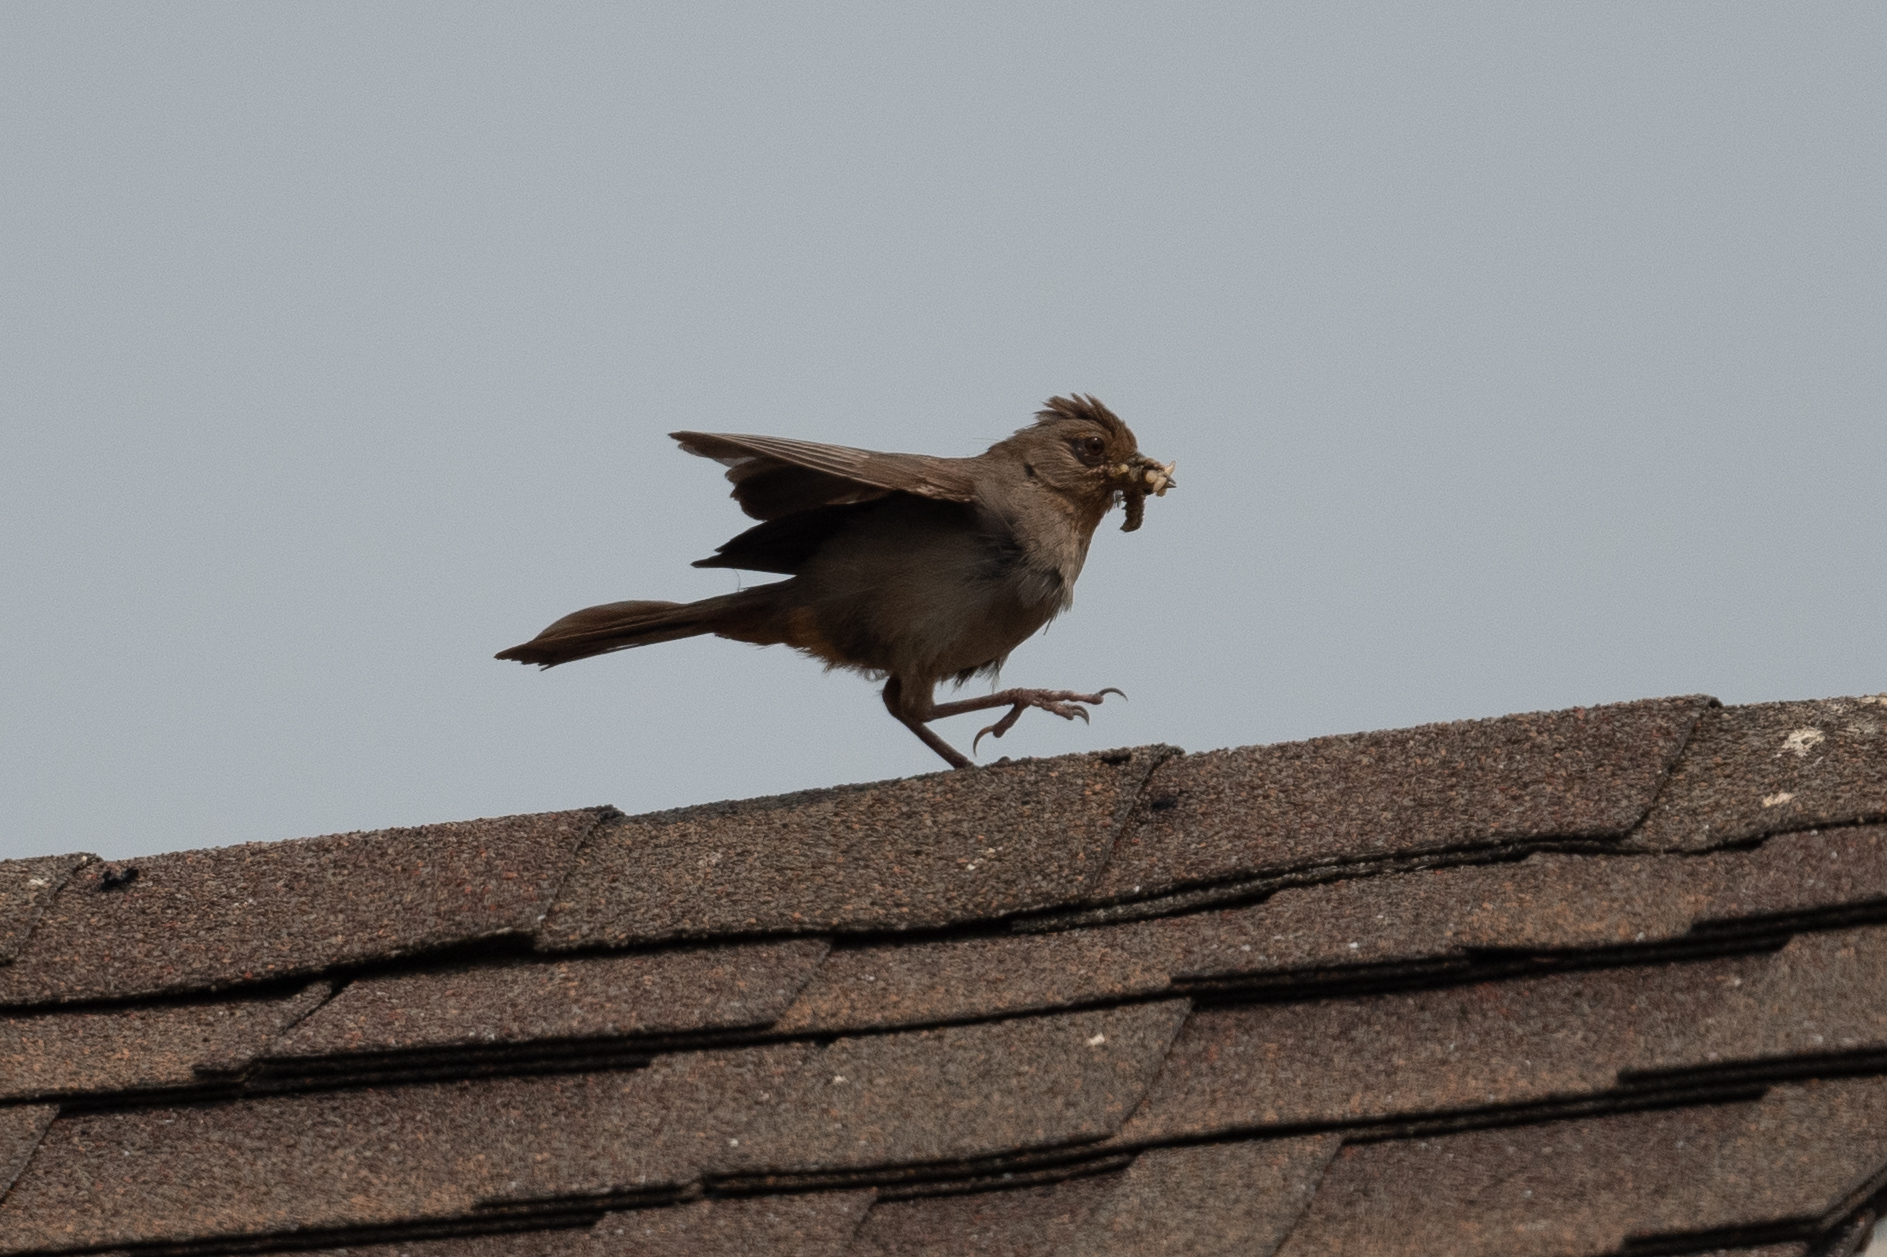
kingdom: Animalia
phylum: Chordata
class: Aves
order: Passeriformes
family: Passerellidae
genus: Melozone
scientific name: Melozone crissalis
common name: California towhee
